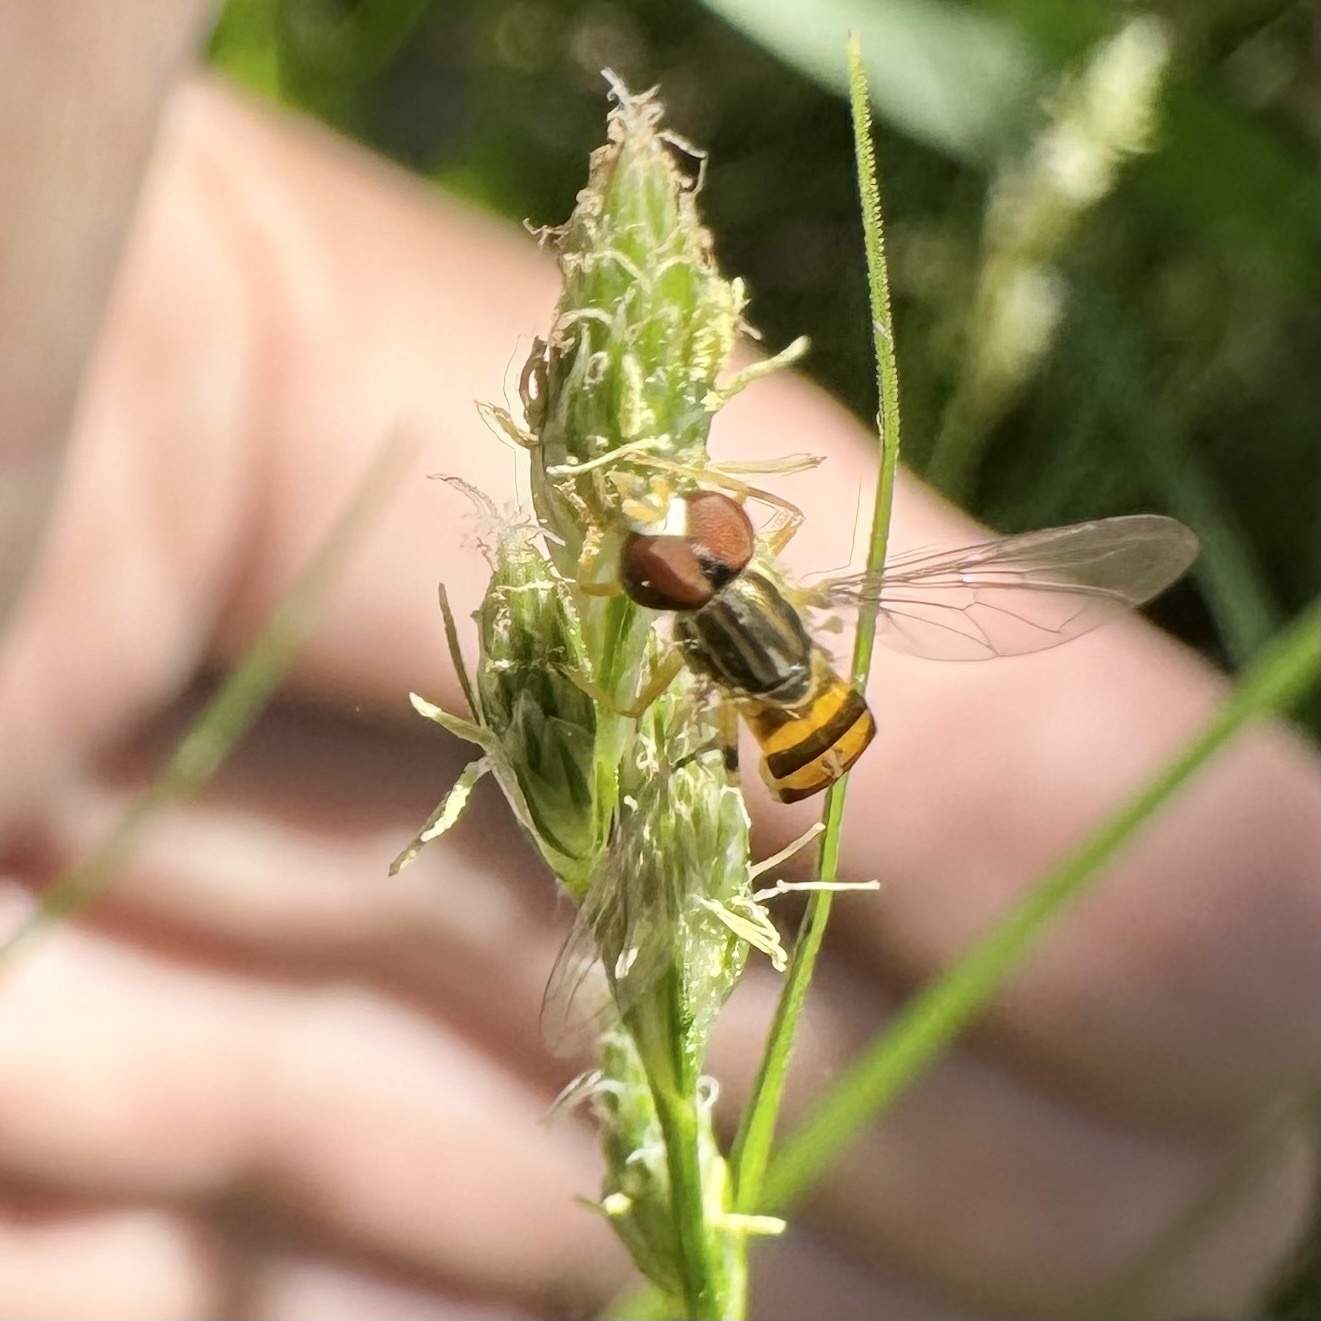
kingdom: Animalia
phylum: Arthropoda
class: Insecta
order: Diptera
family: Syrphidae
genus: Toxomerus
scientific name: Toxomerus floralis
